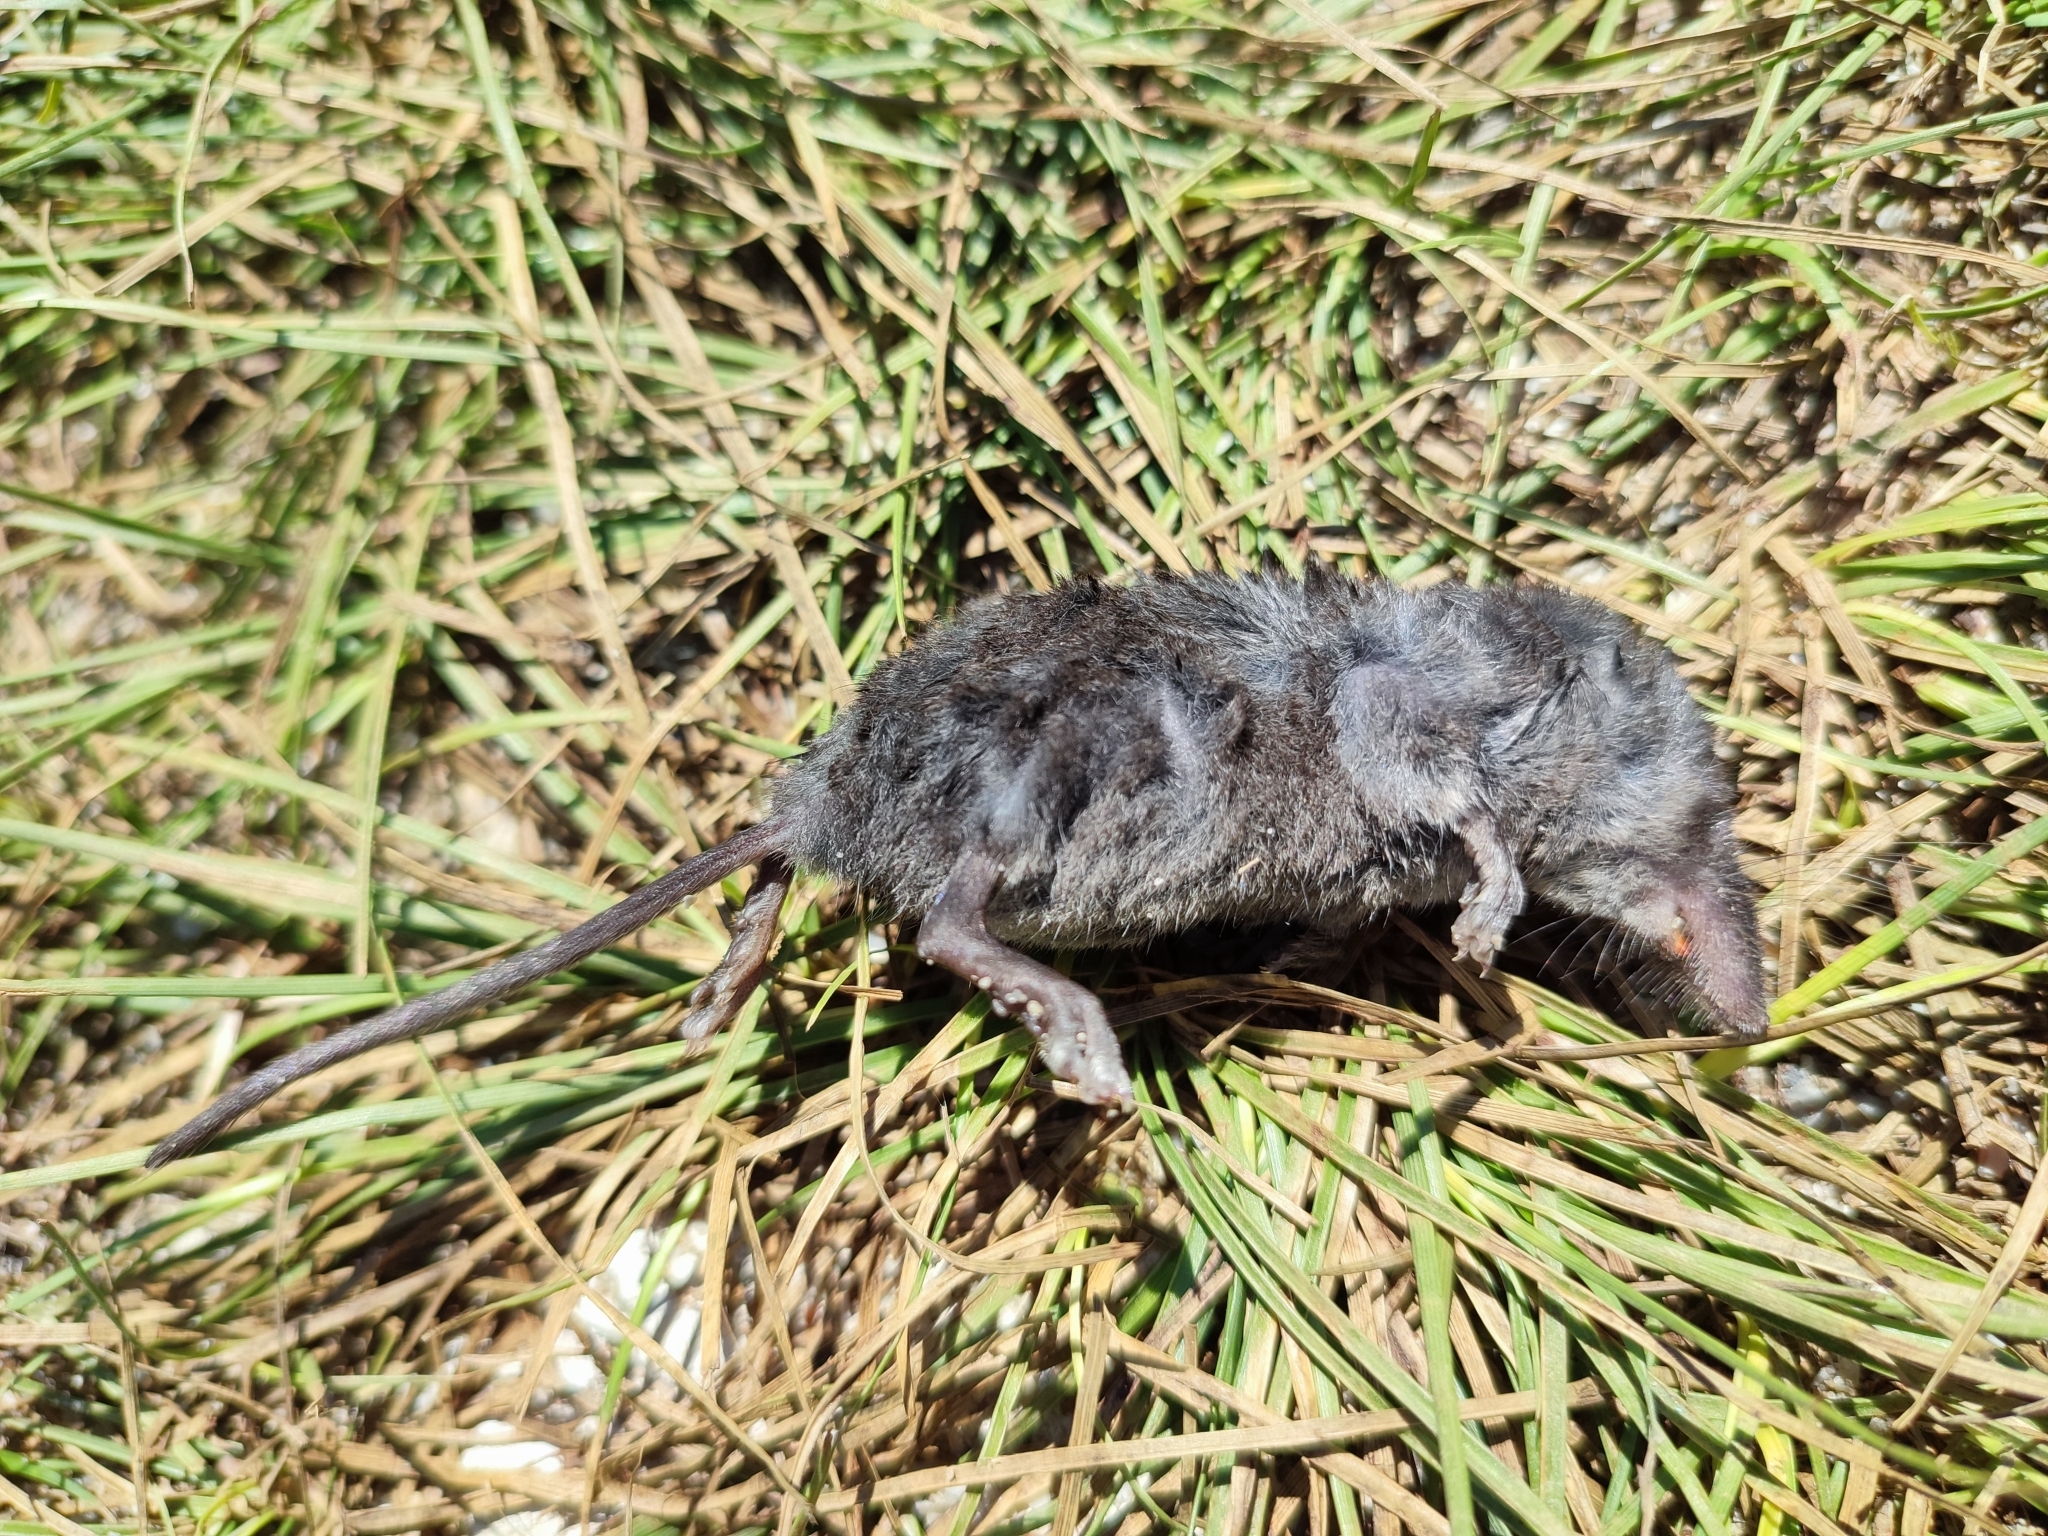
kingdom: Animalia
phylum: Chordata
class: Mammalia
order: Soricomorpha
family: Soricidae
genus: Neomys
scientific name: Neomys milleri
